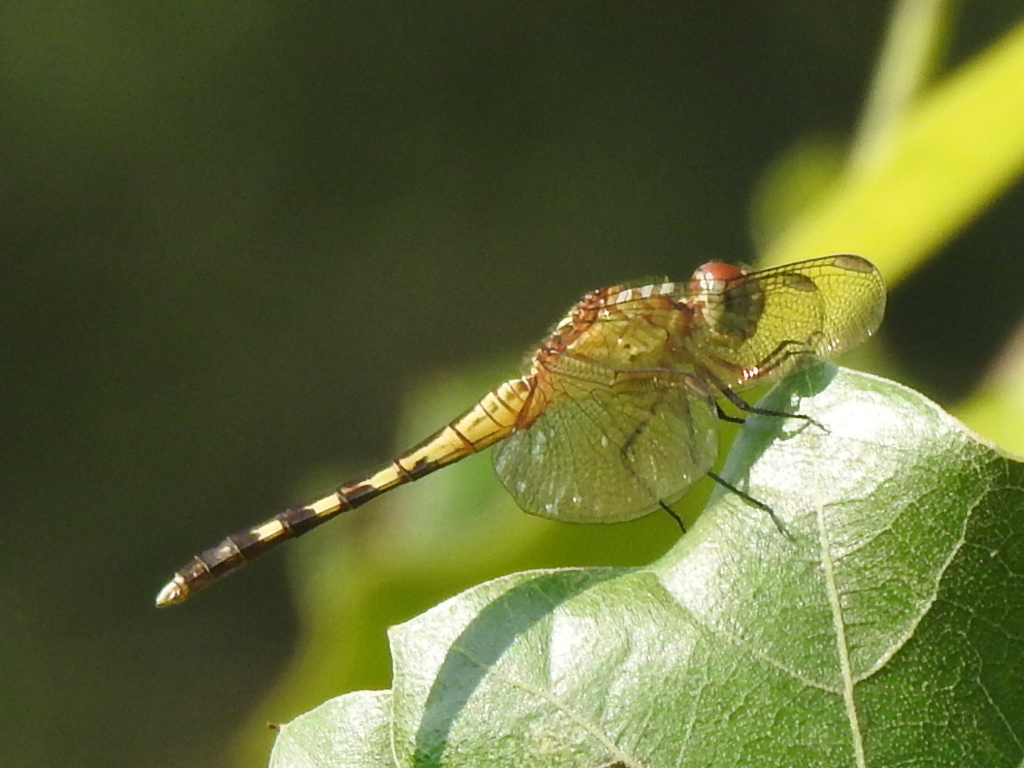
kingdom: Animalia
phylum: Arthropoda
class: Insecta
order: Odonata
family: Libellulidae
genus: Erythrodiplax
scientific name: Erythrodiplax umbrata
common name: Band-winged dragonlet
